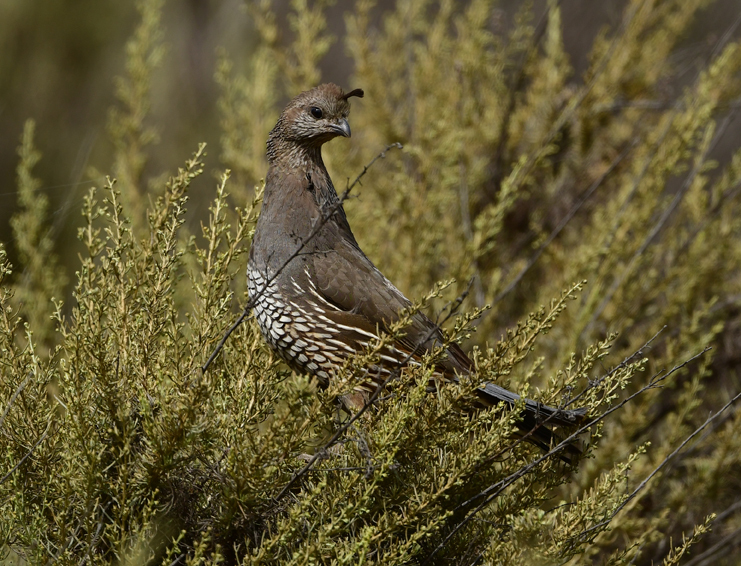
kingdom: Animalia
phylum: Chordata
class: Aves
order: Galliformes
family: Odontophoridae
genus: Callipepla
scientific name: Callipepla californica
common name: California quail
